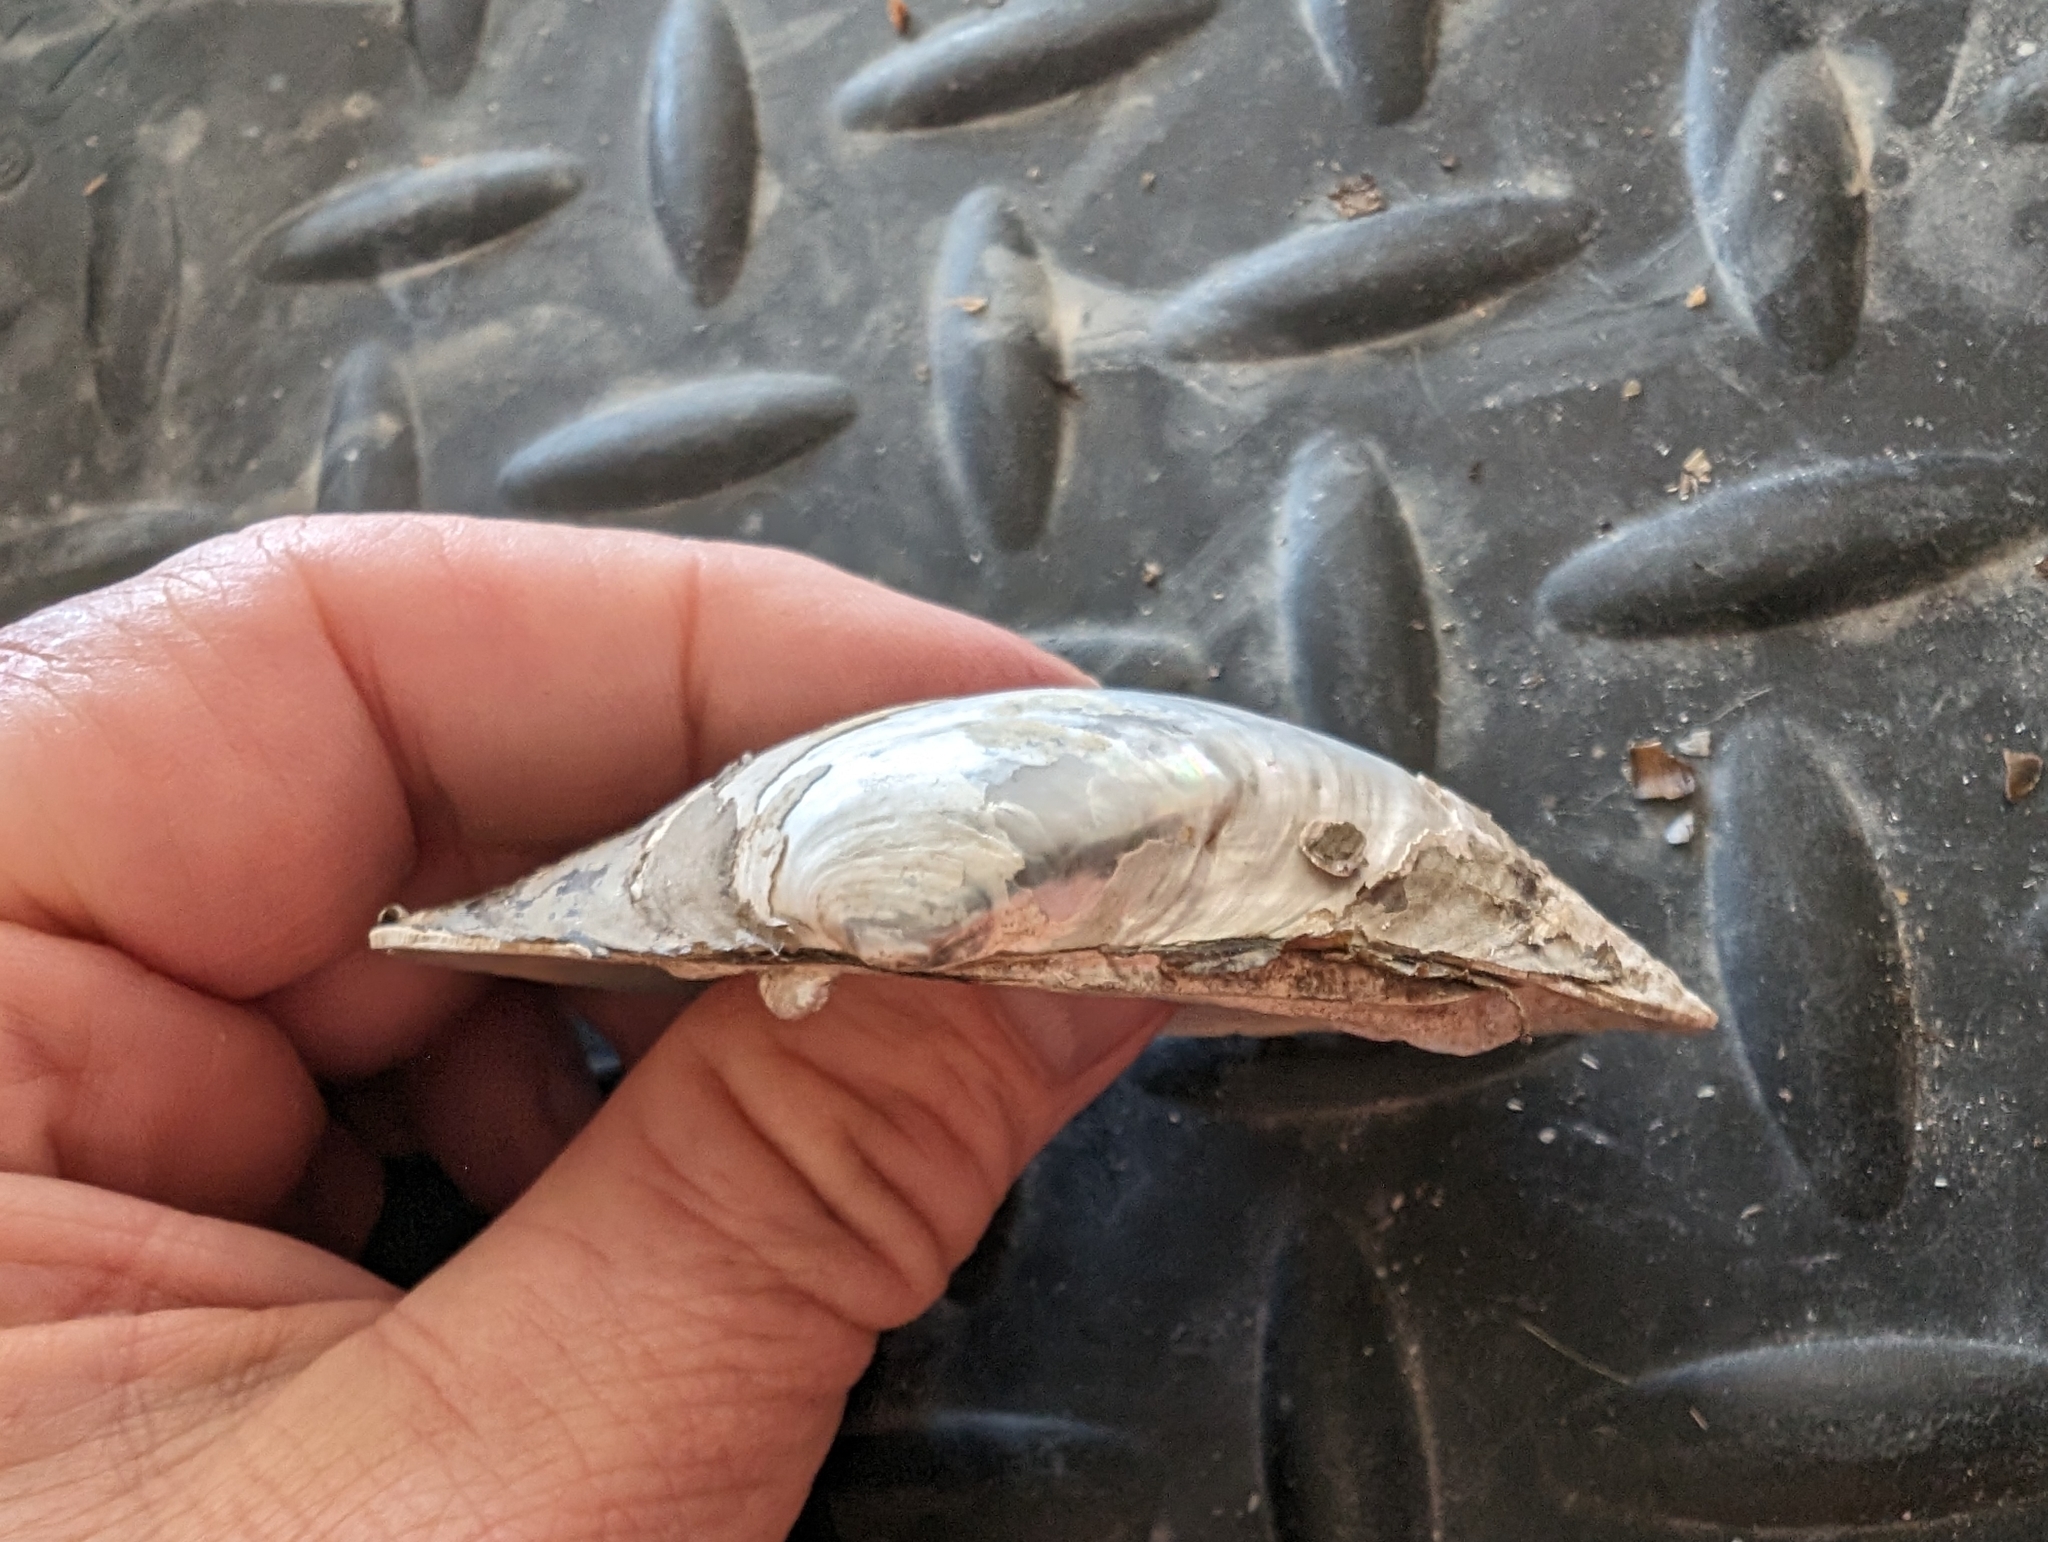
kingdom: Animalia
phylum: Mollusca
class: Bivalvia
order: Unionida
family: Unionidae
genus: Lampsilis
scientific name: Lampsilis cardium
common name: Plain pocketbook
